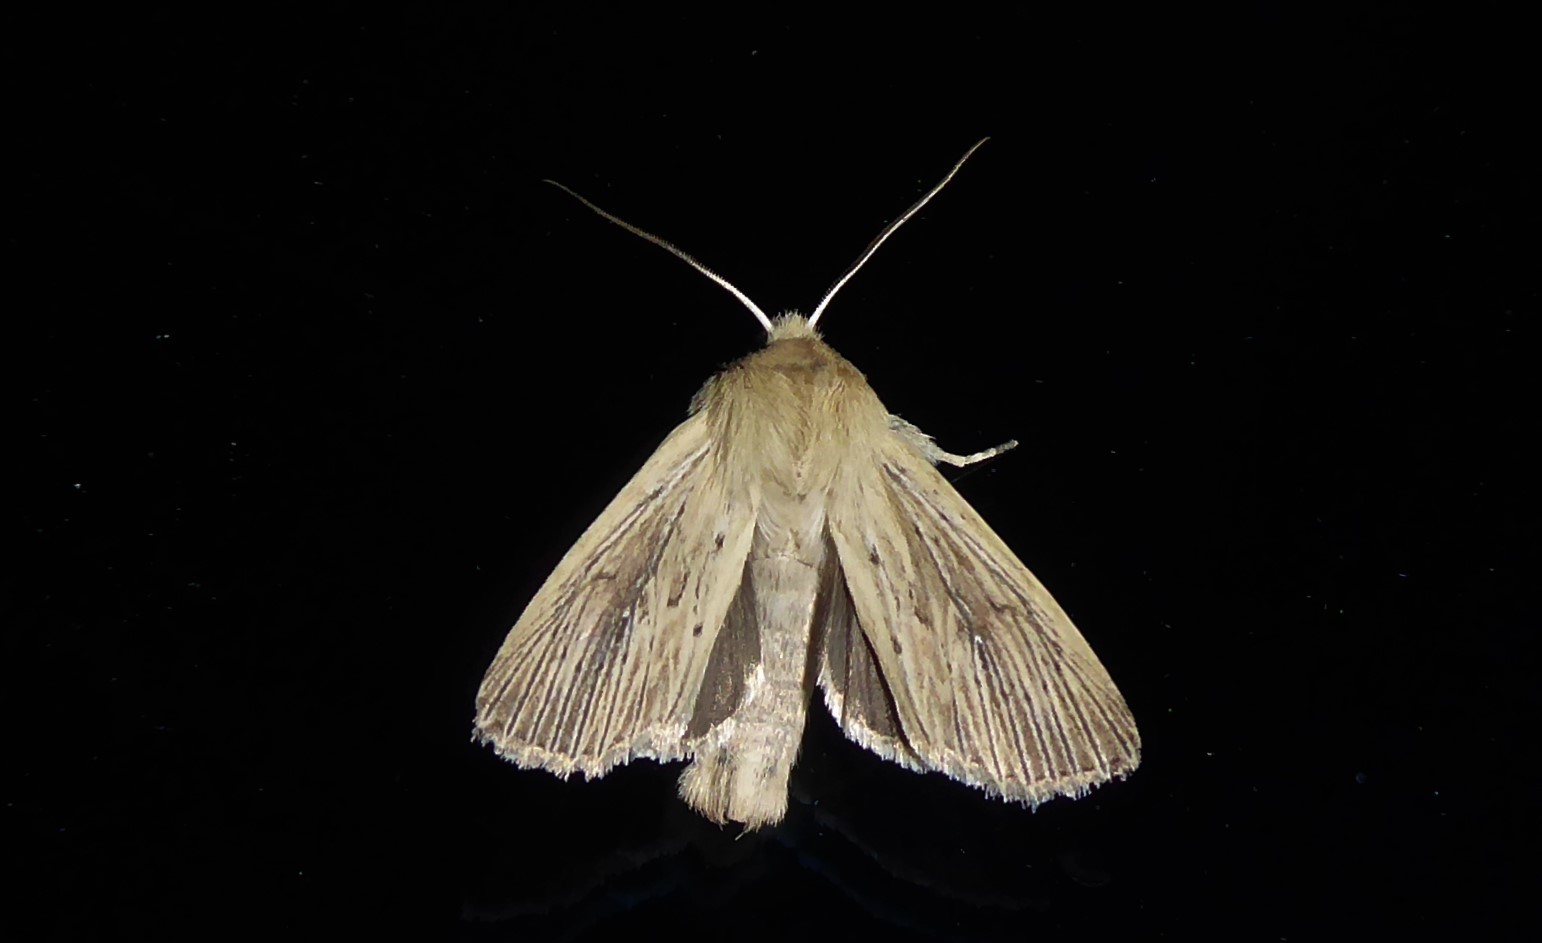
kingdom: Animalia
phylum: Arthropoda
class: Insecta
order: Lepidoptera
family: Noctuidae
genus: Ichneutica
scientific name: Ichneutica arotis
